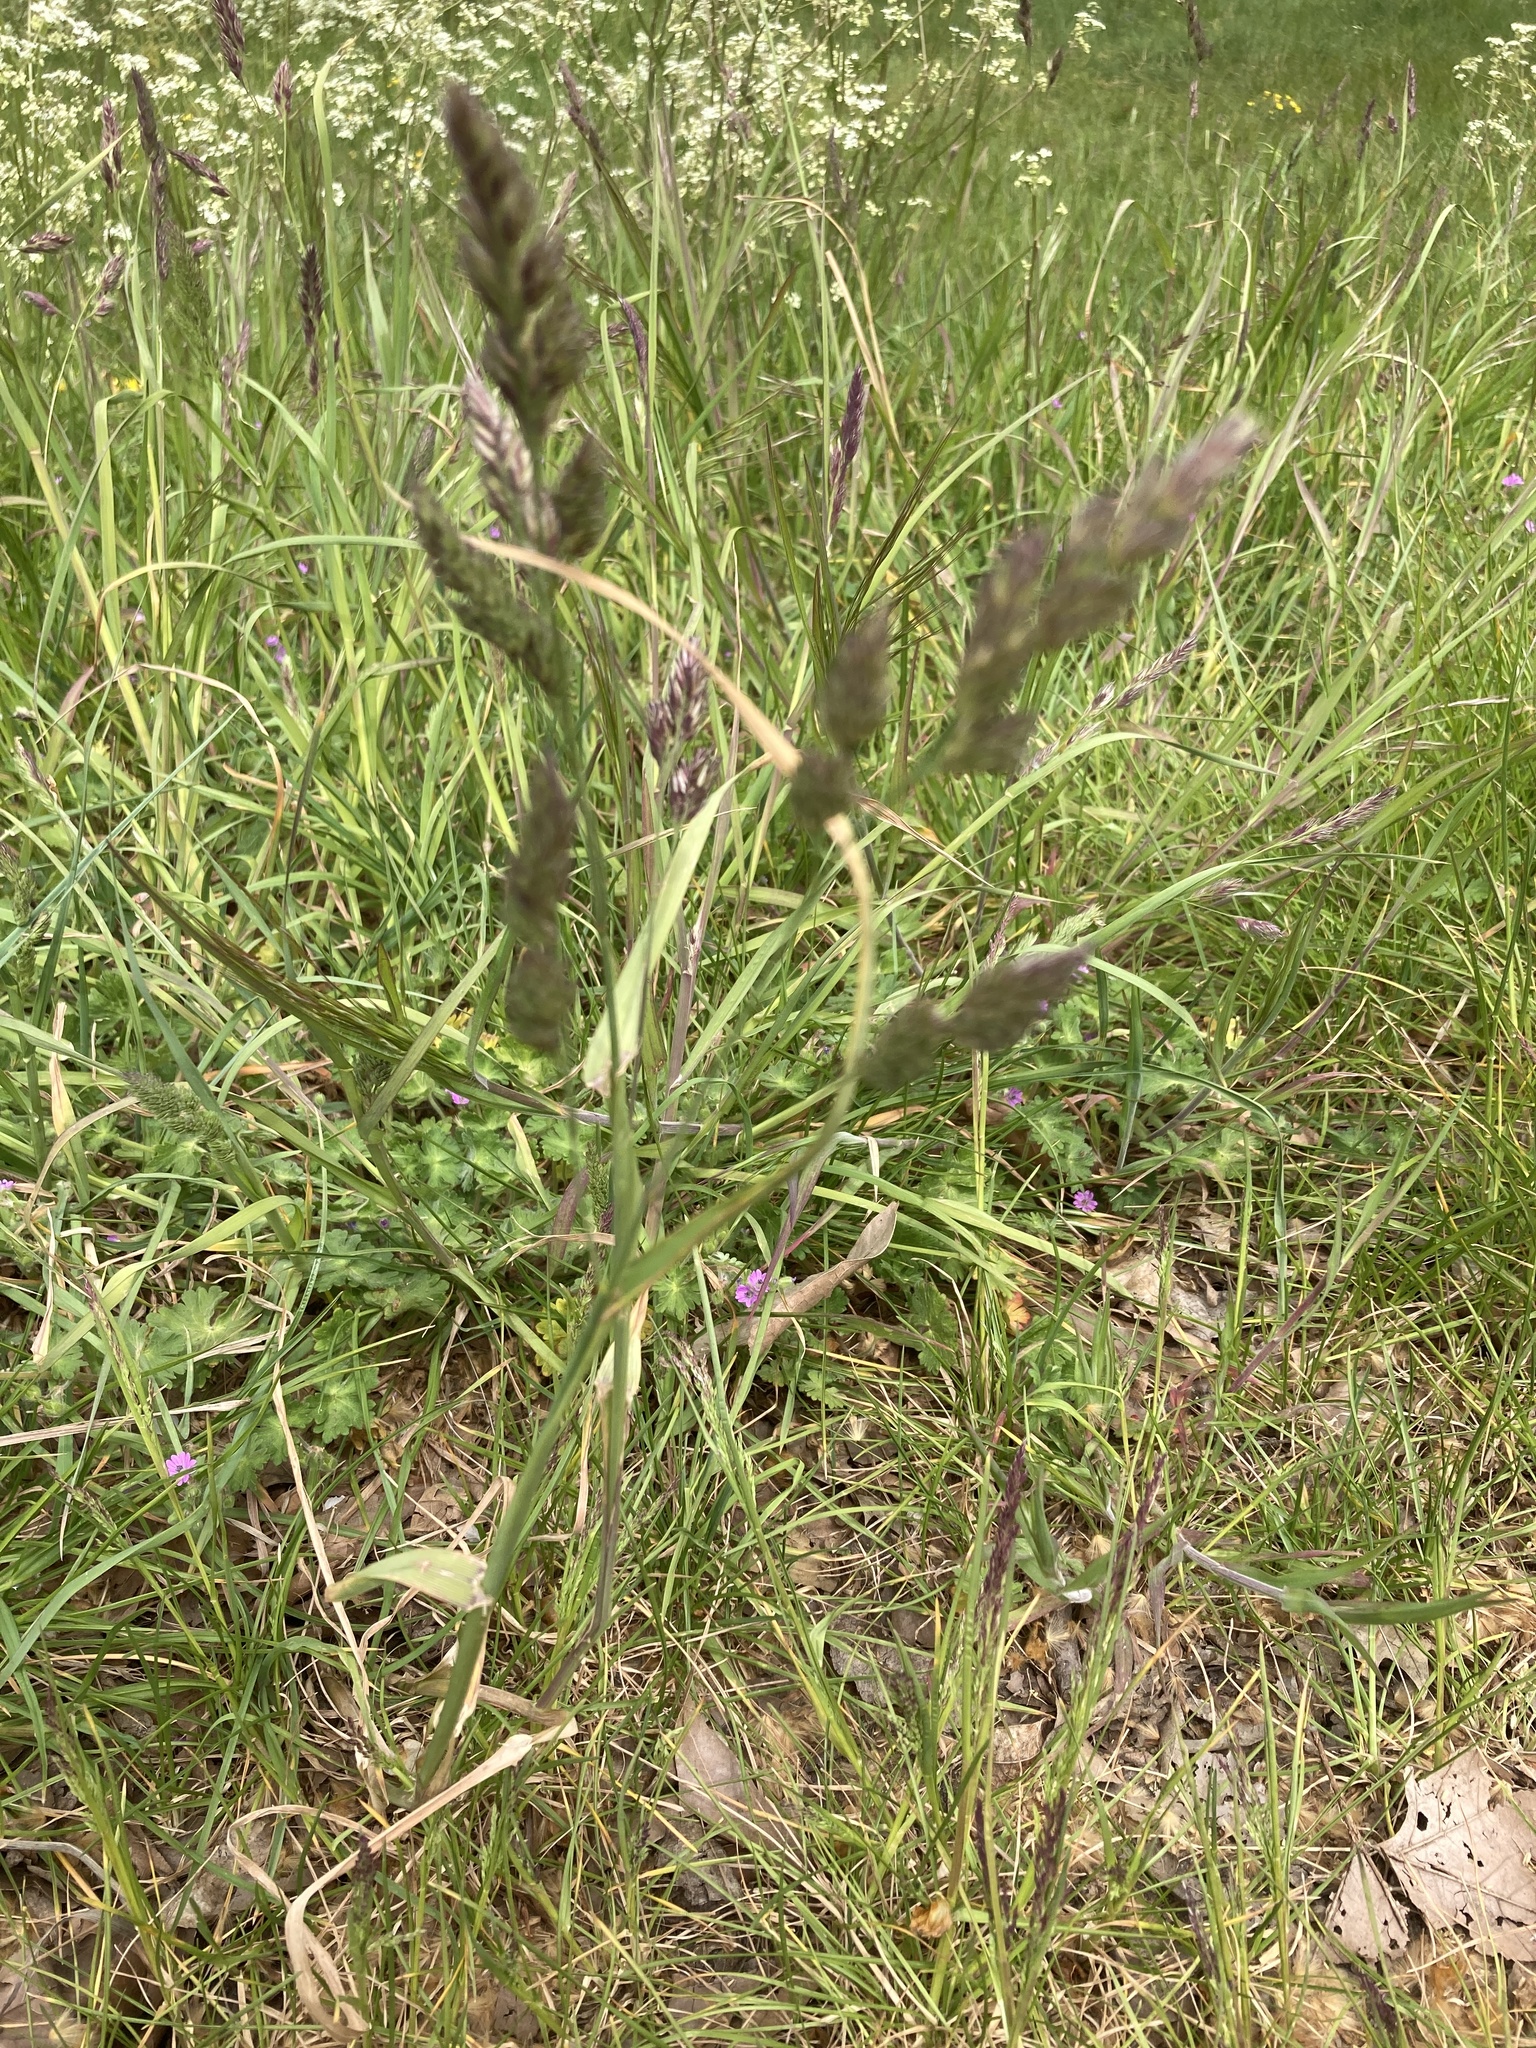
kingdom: Plantae
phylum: Tracheophyta
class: Liliopsida
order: Poales
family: Poaceae
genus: Dactylis
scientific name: Dactylis glomerata
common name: Orchardgrass
